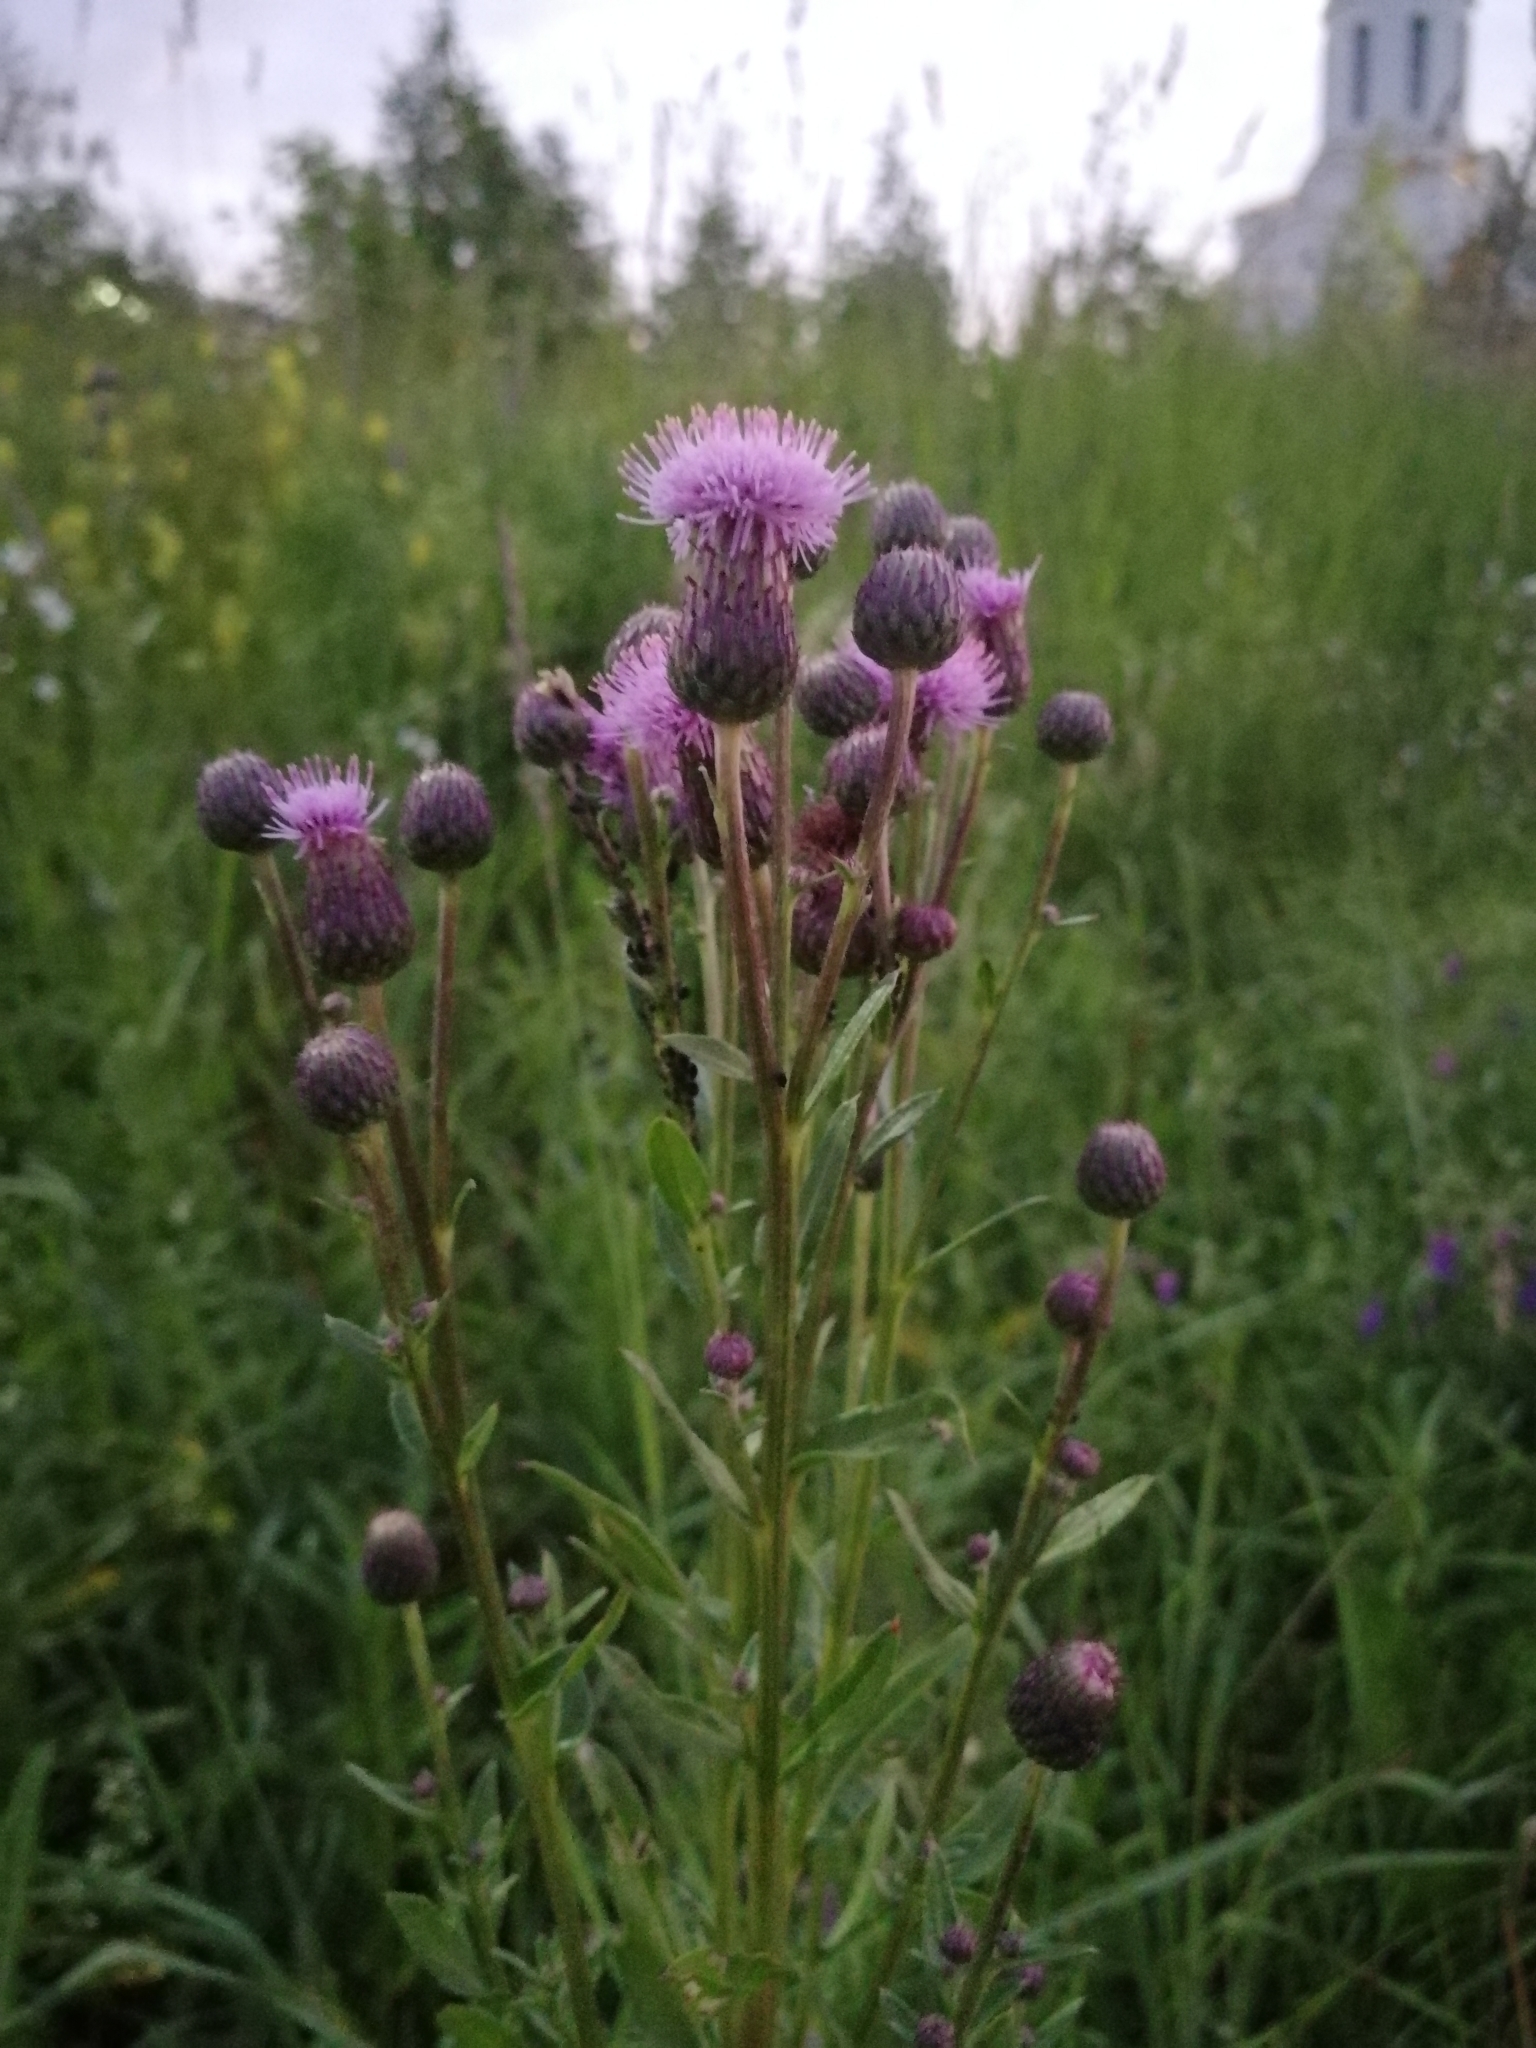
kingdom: Plantae
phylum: Tracheophyta
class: Magnoliopsida
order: Asterales
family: Asteraceae
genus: Cirsium
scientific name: Cirsium arvense
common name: Creeping thistle
